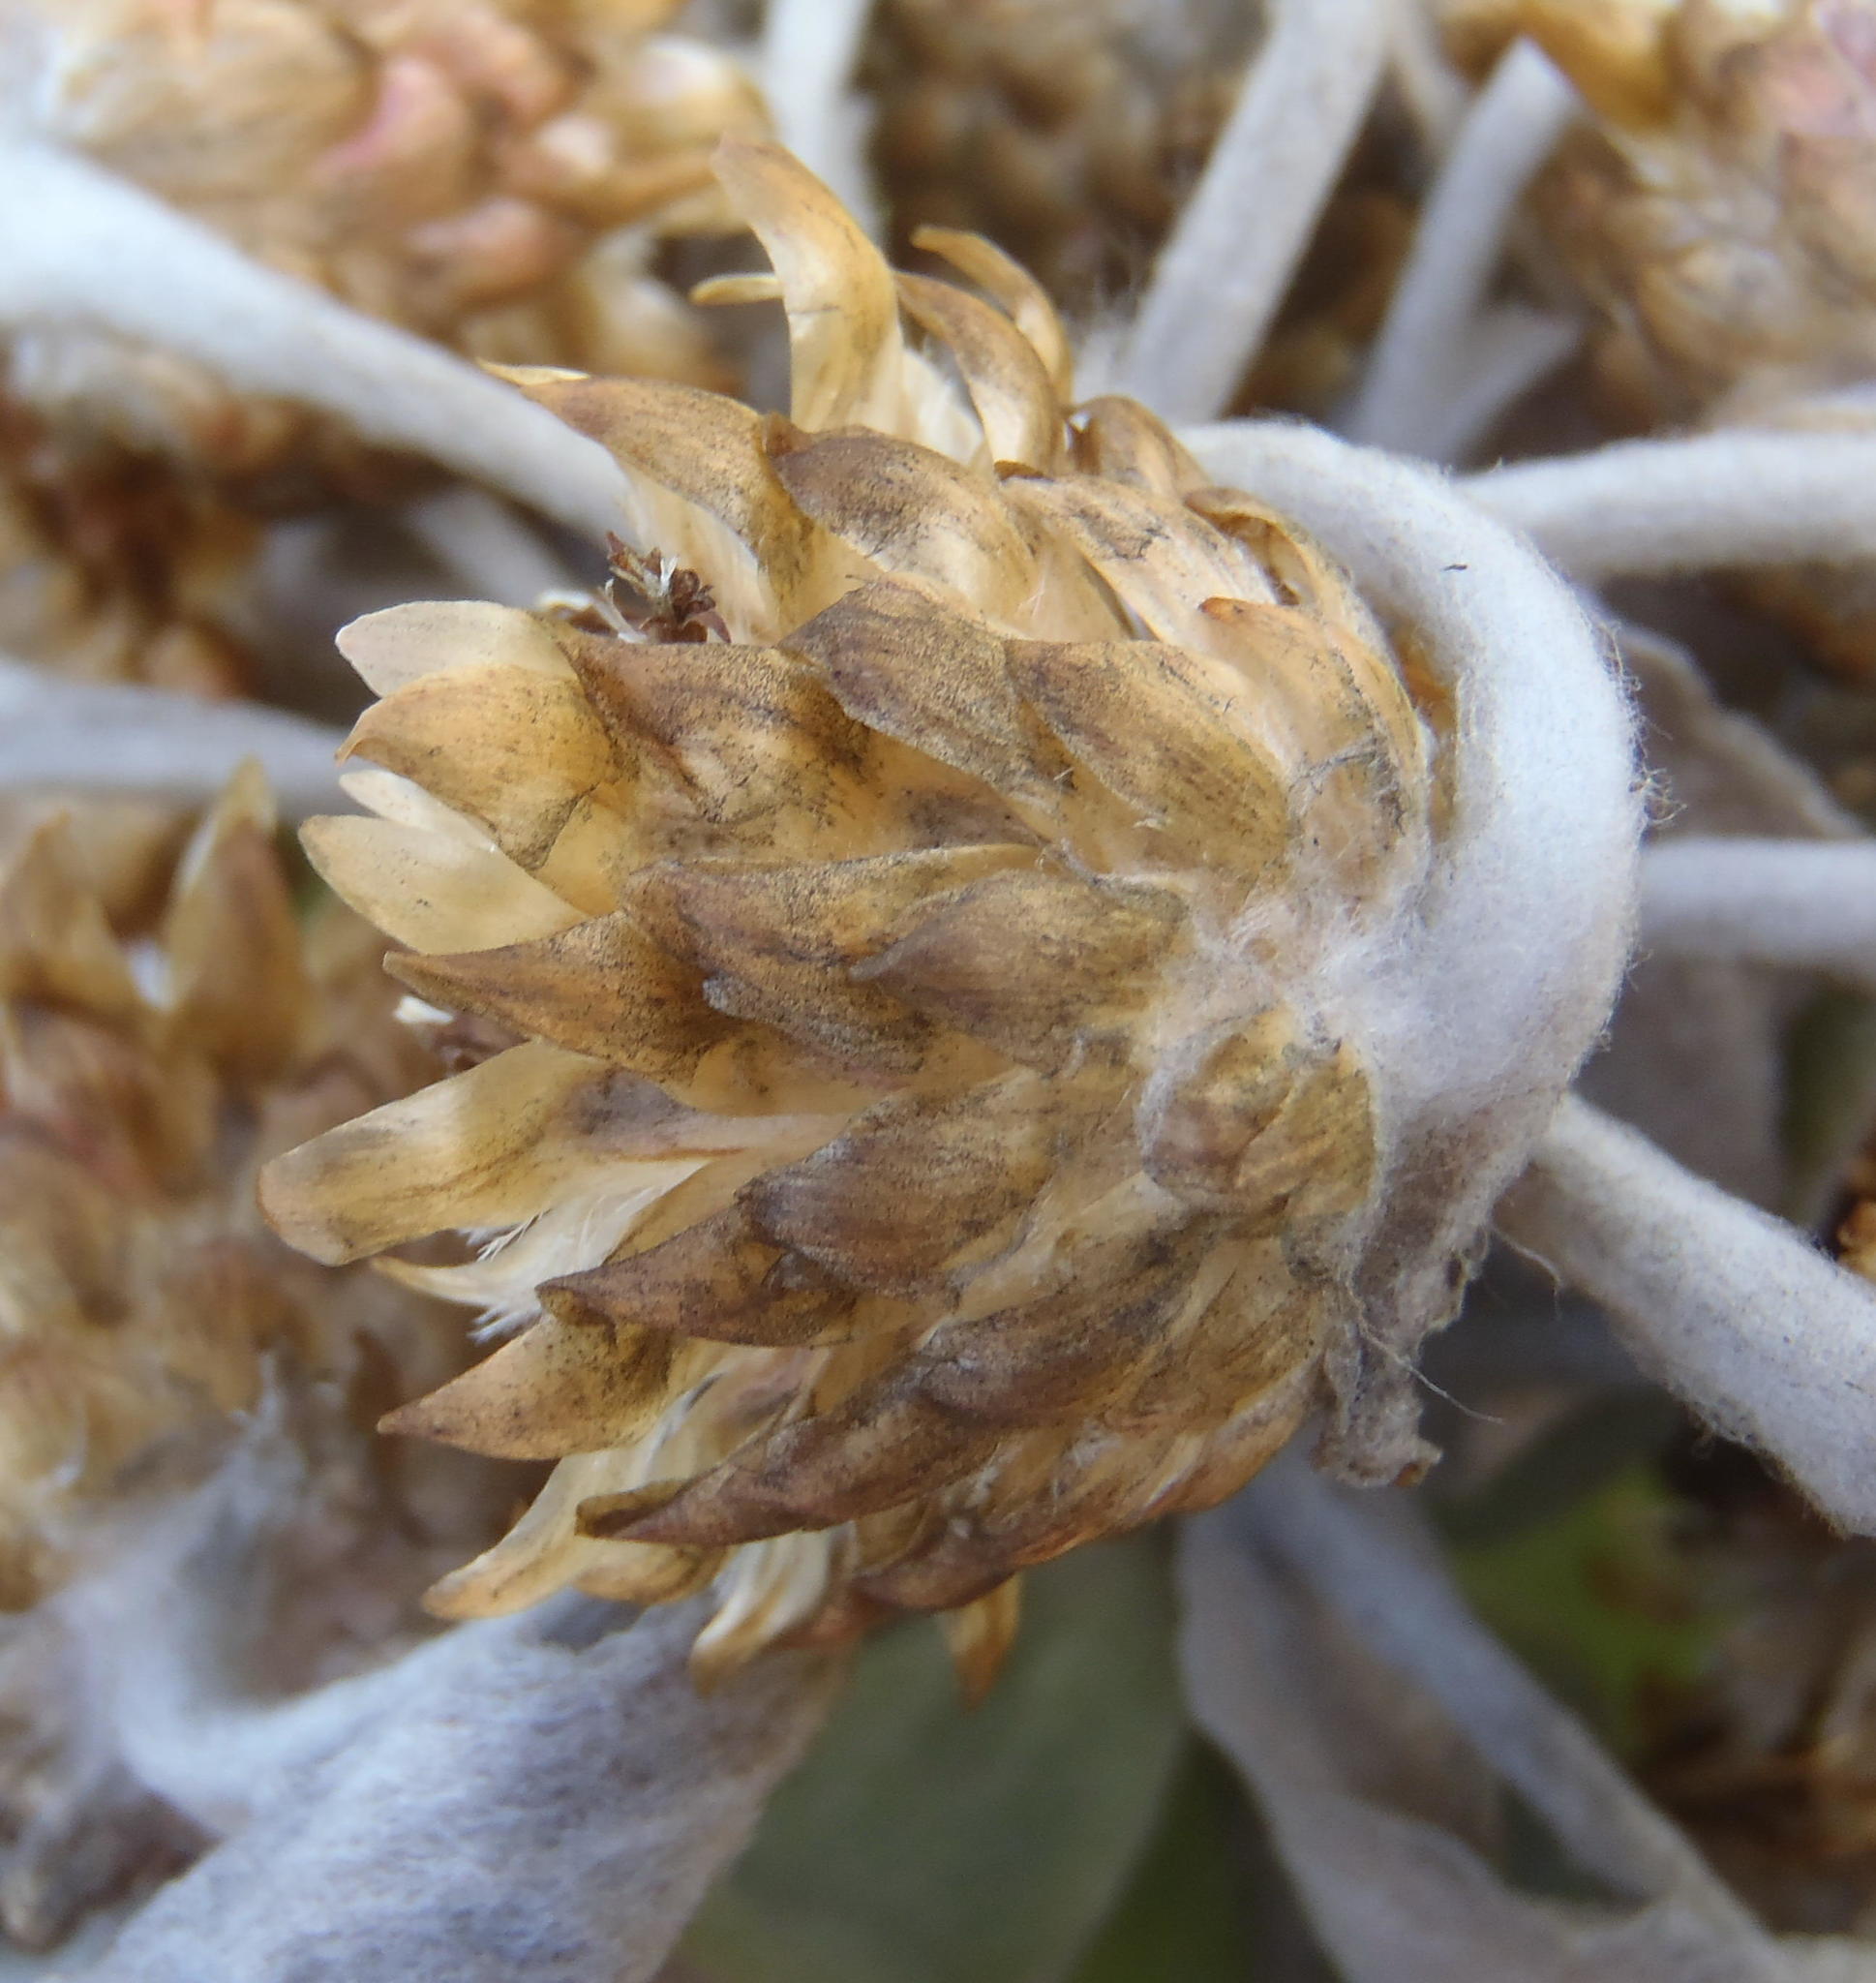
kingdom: Plantae
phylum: Tracheophyta
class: Magnoliopsida
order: Asterales
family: Asteraceae
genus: Syncarpha
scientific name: Syncarpha eximia
